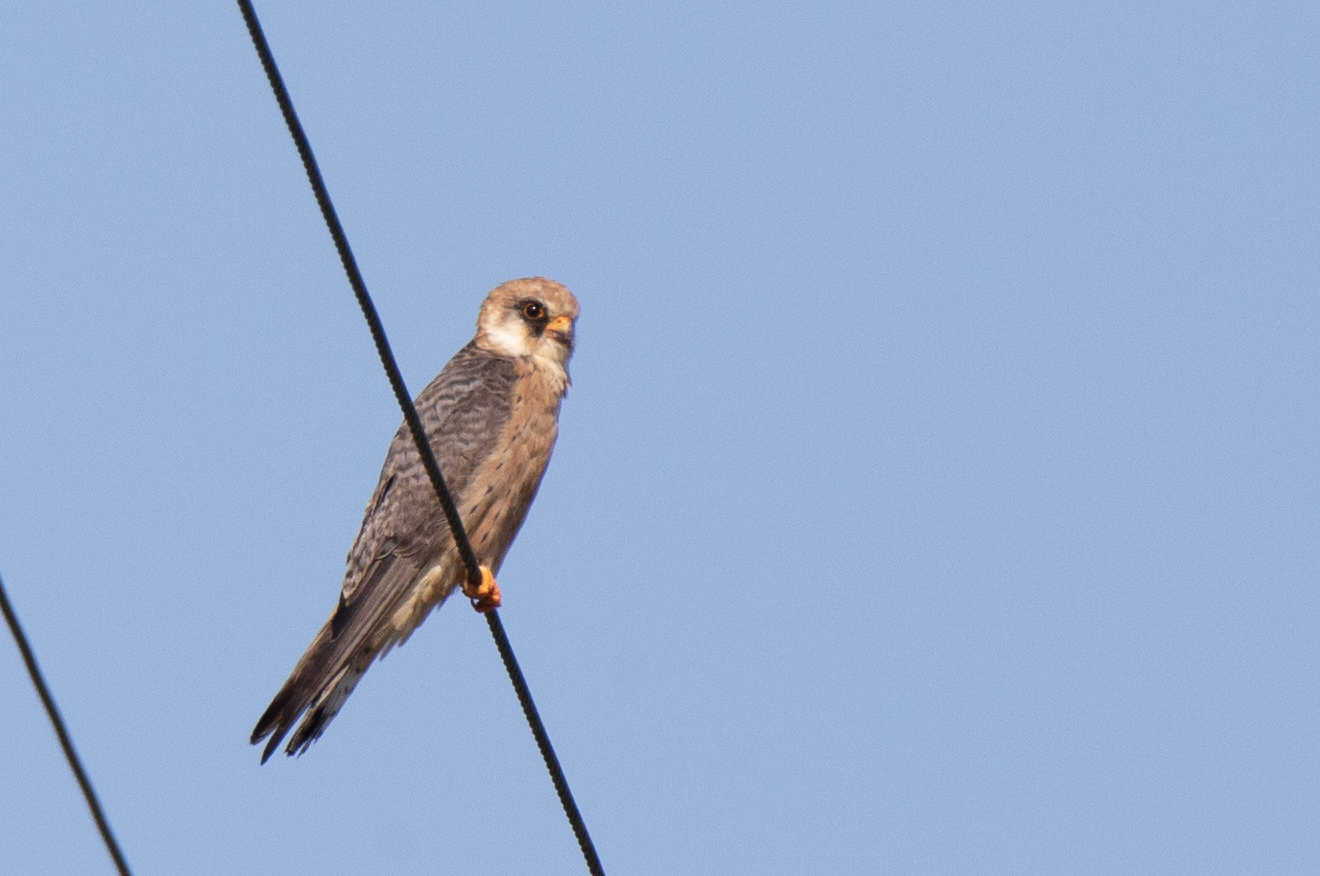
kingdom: Animalia
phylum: Chordata
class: Aves
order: Falconiformes
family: Falconidae
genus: Falco
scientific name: Falco vespertinus
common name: Red-footed falcon
